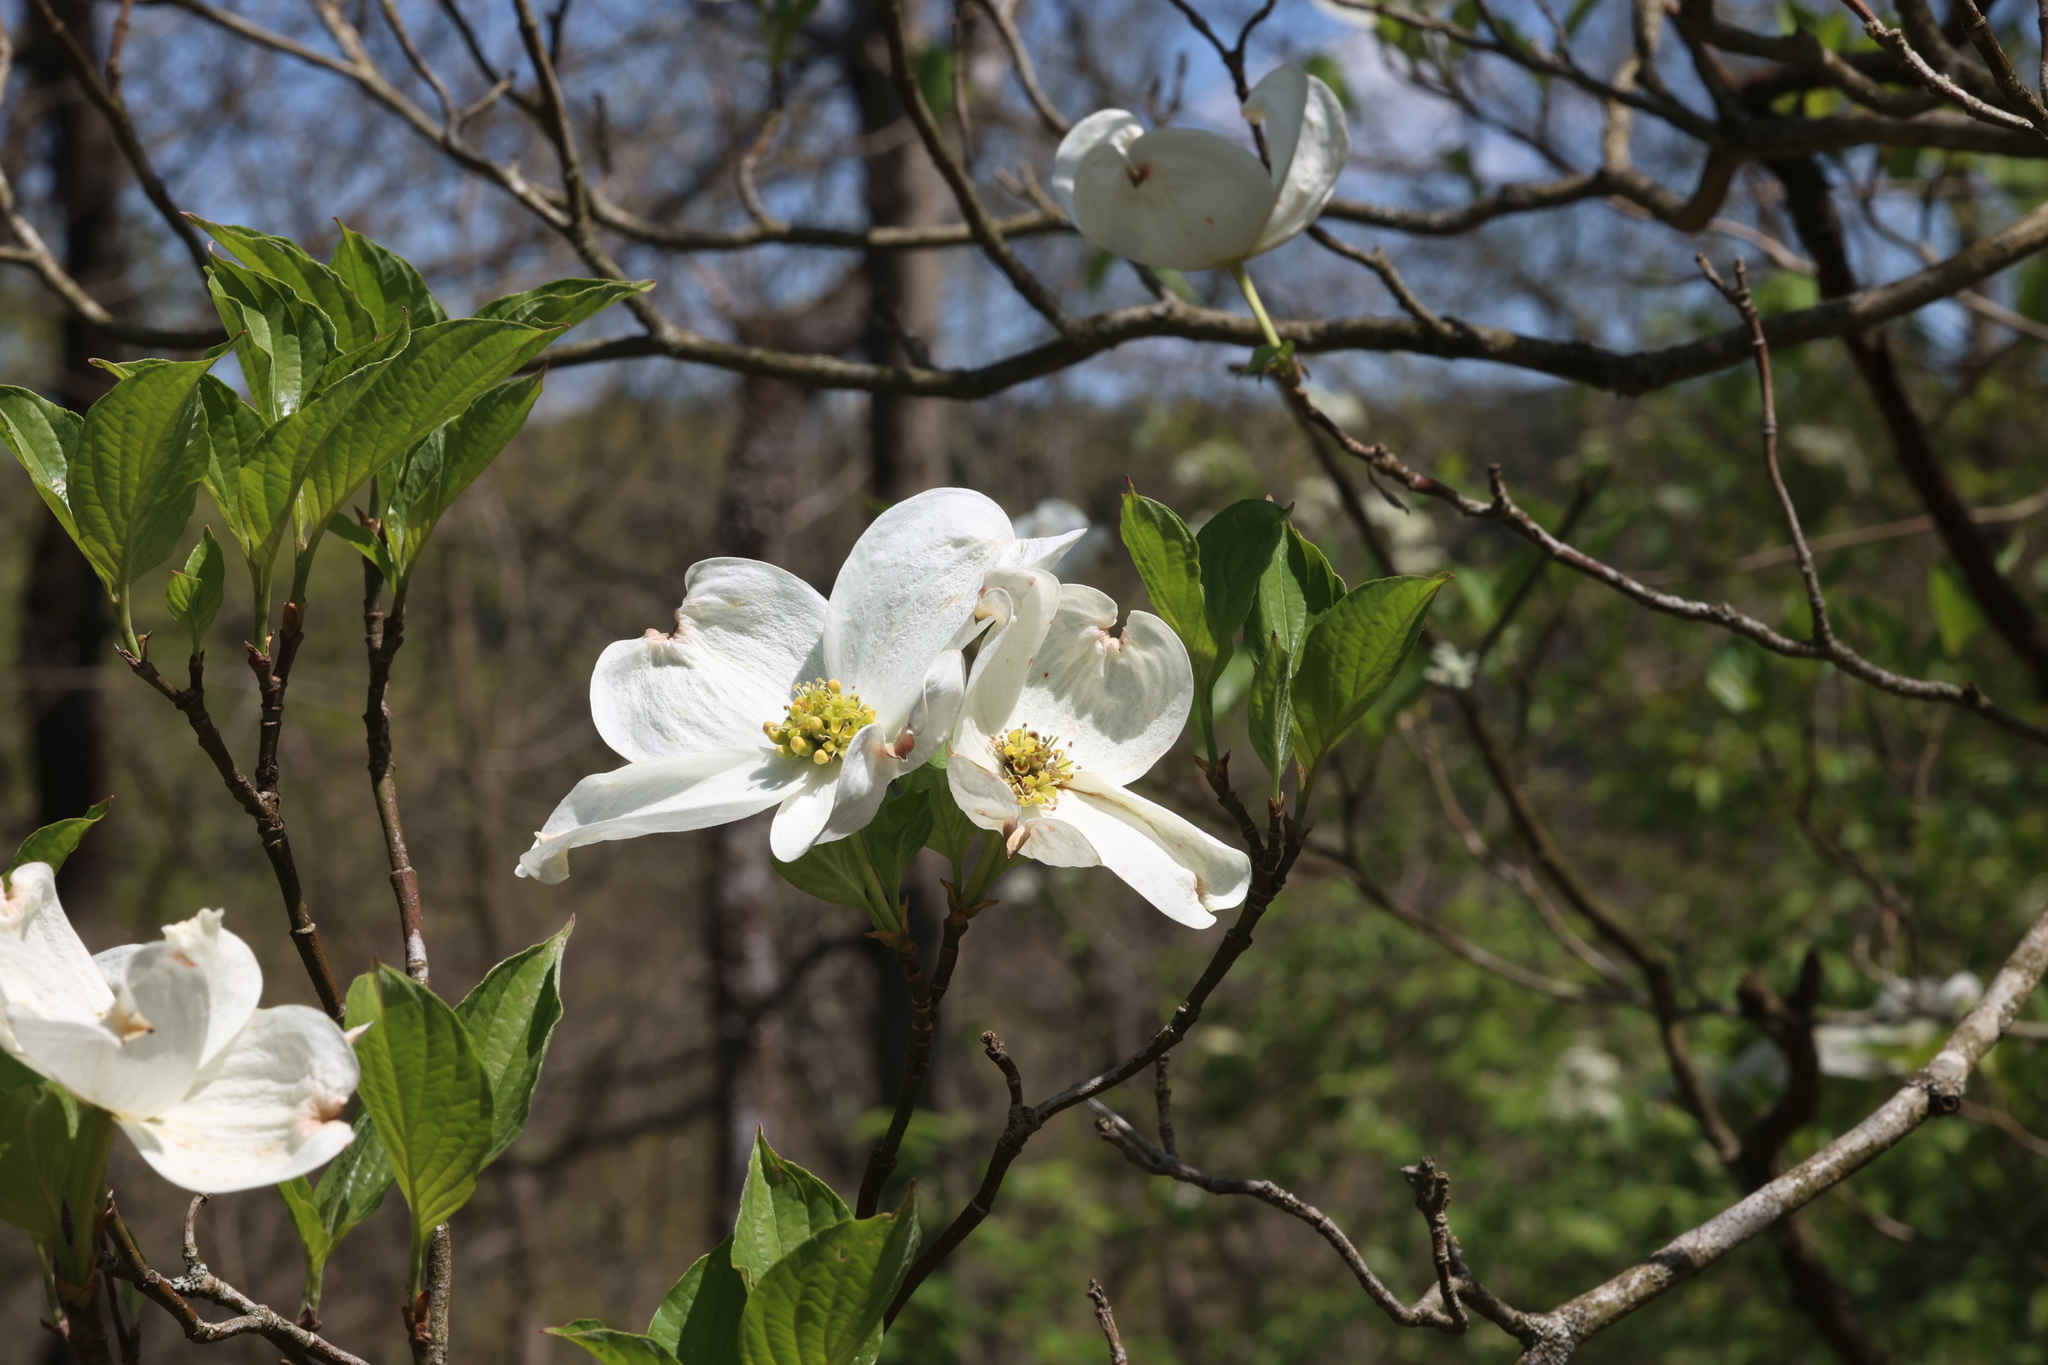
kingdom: Plantae
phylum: Tracheophyta
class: Magnoliopsida
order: Cornales
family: Cornaceae
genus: Cornus
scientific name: Cornus florida
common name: Flowering dogwood
